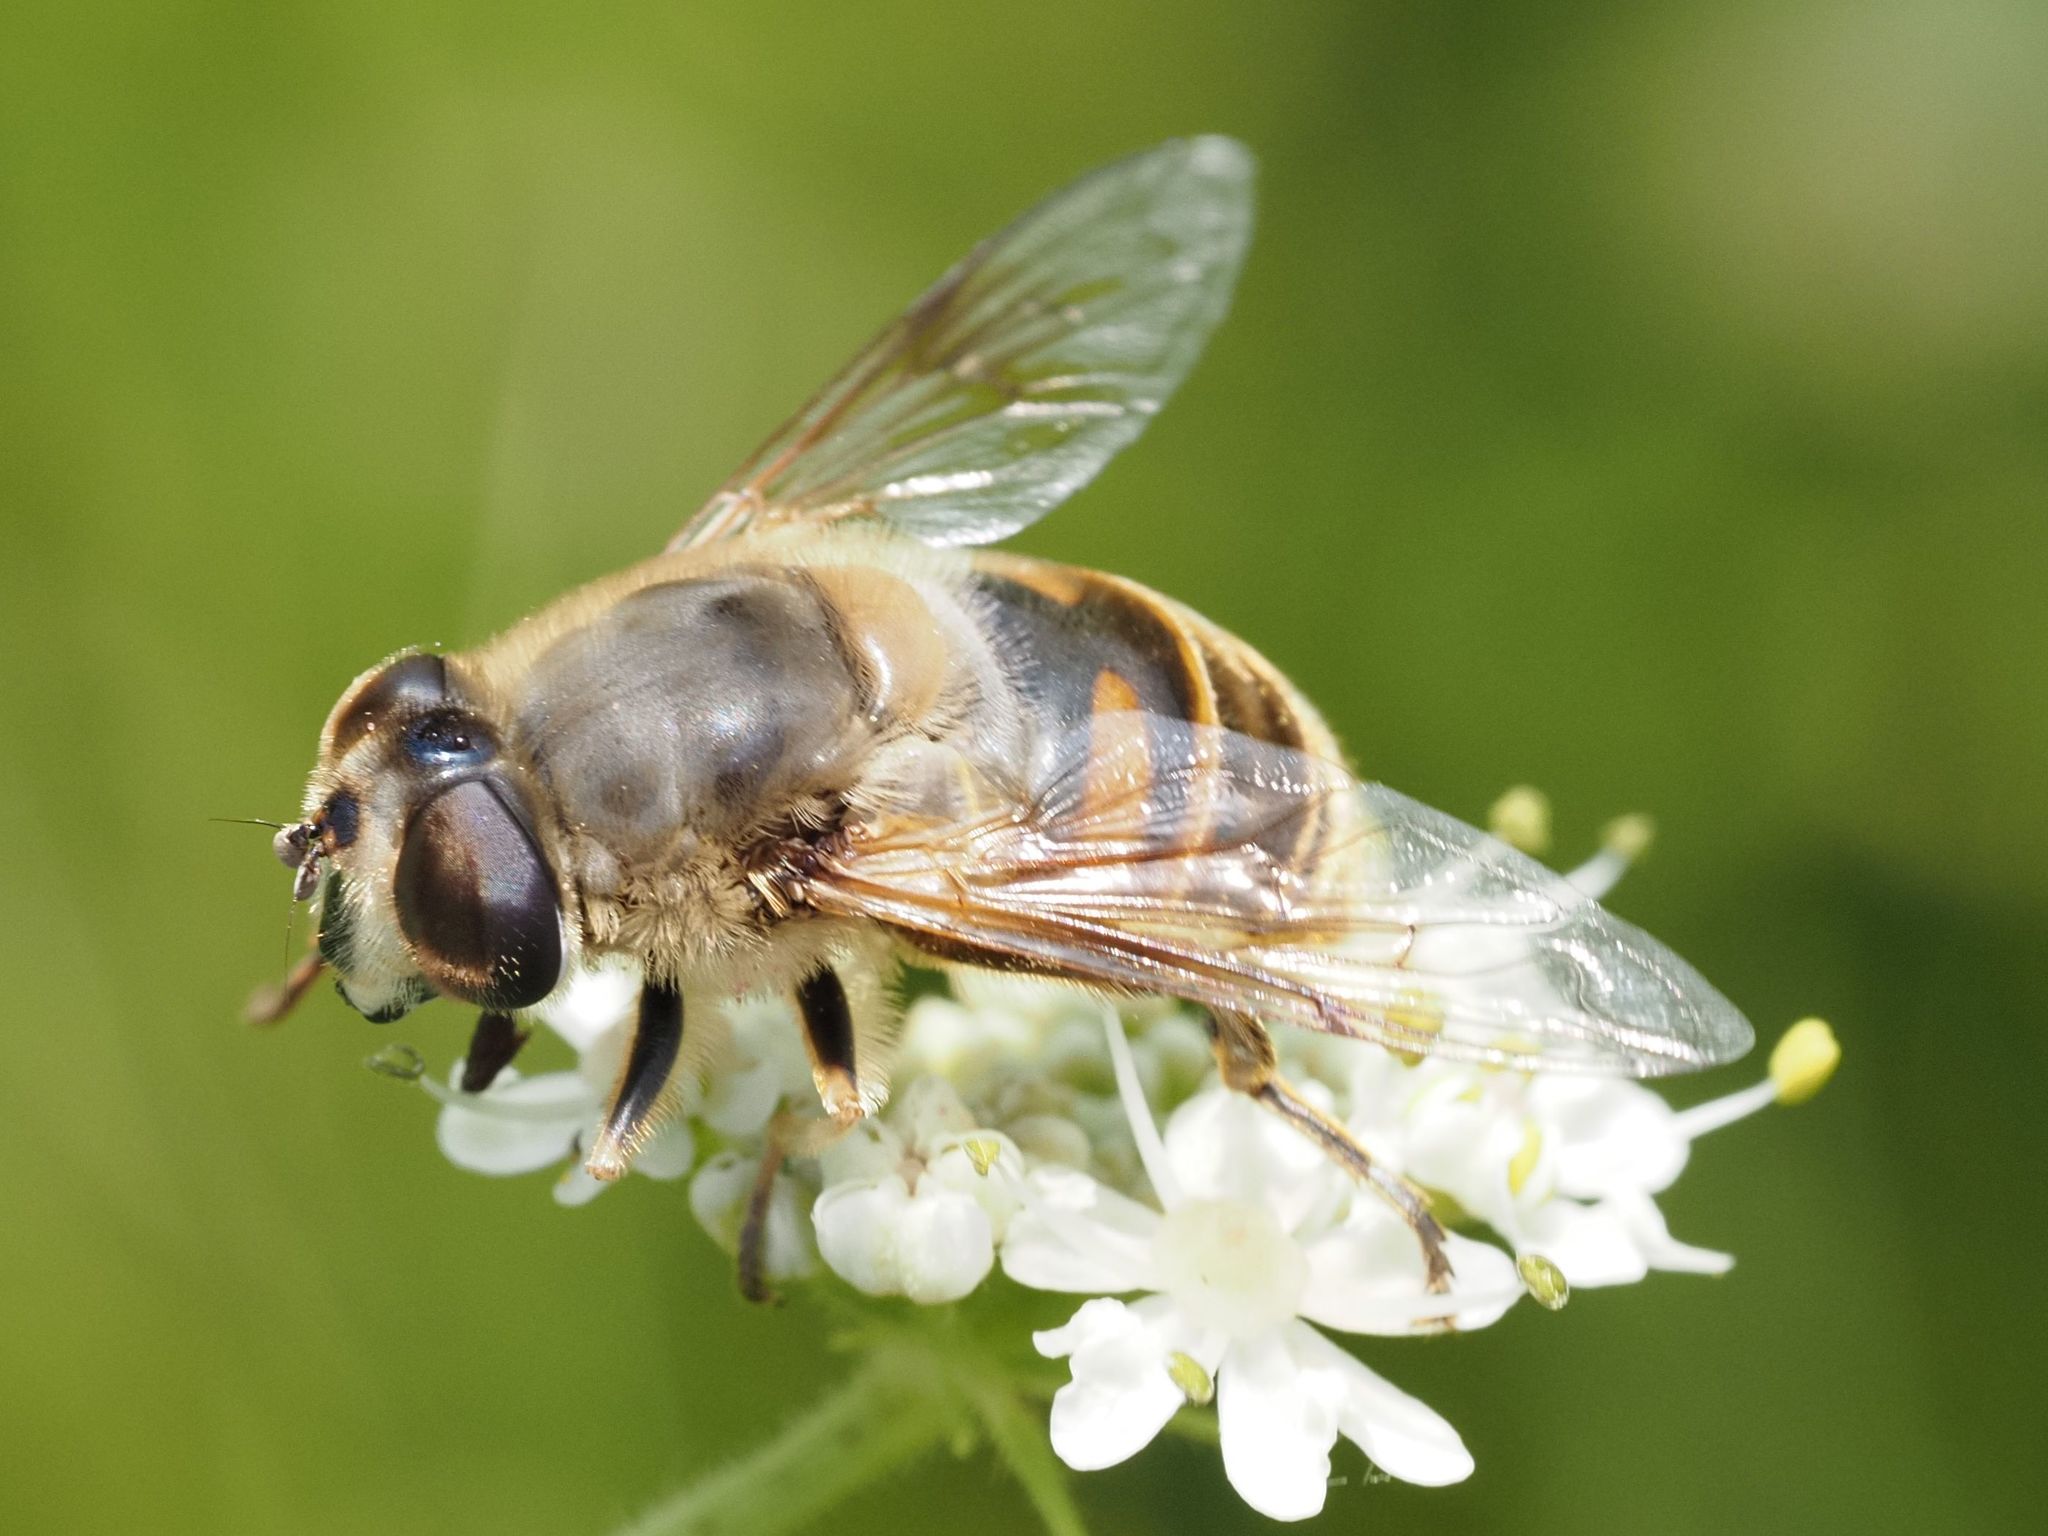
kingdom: Animalia
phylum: Arthropoda
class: Insecta
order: Diptera
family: Syrphidae
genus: Eristalis
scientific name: Eristalis tenax
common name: Drone fly
